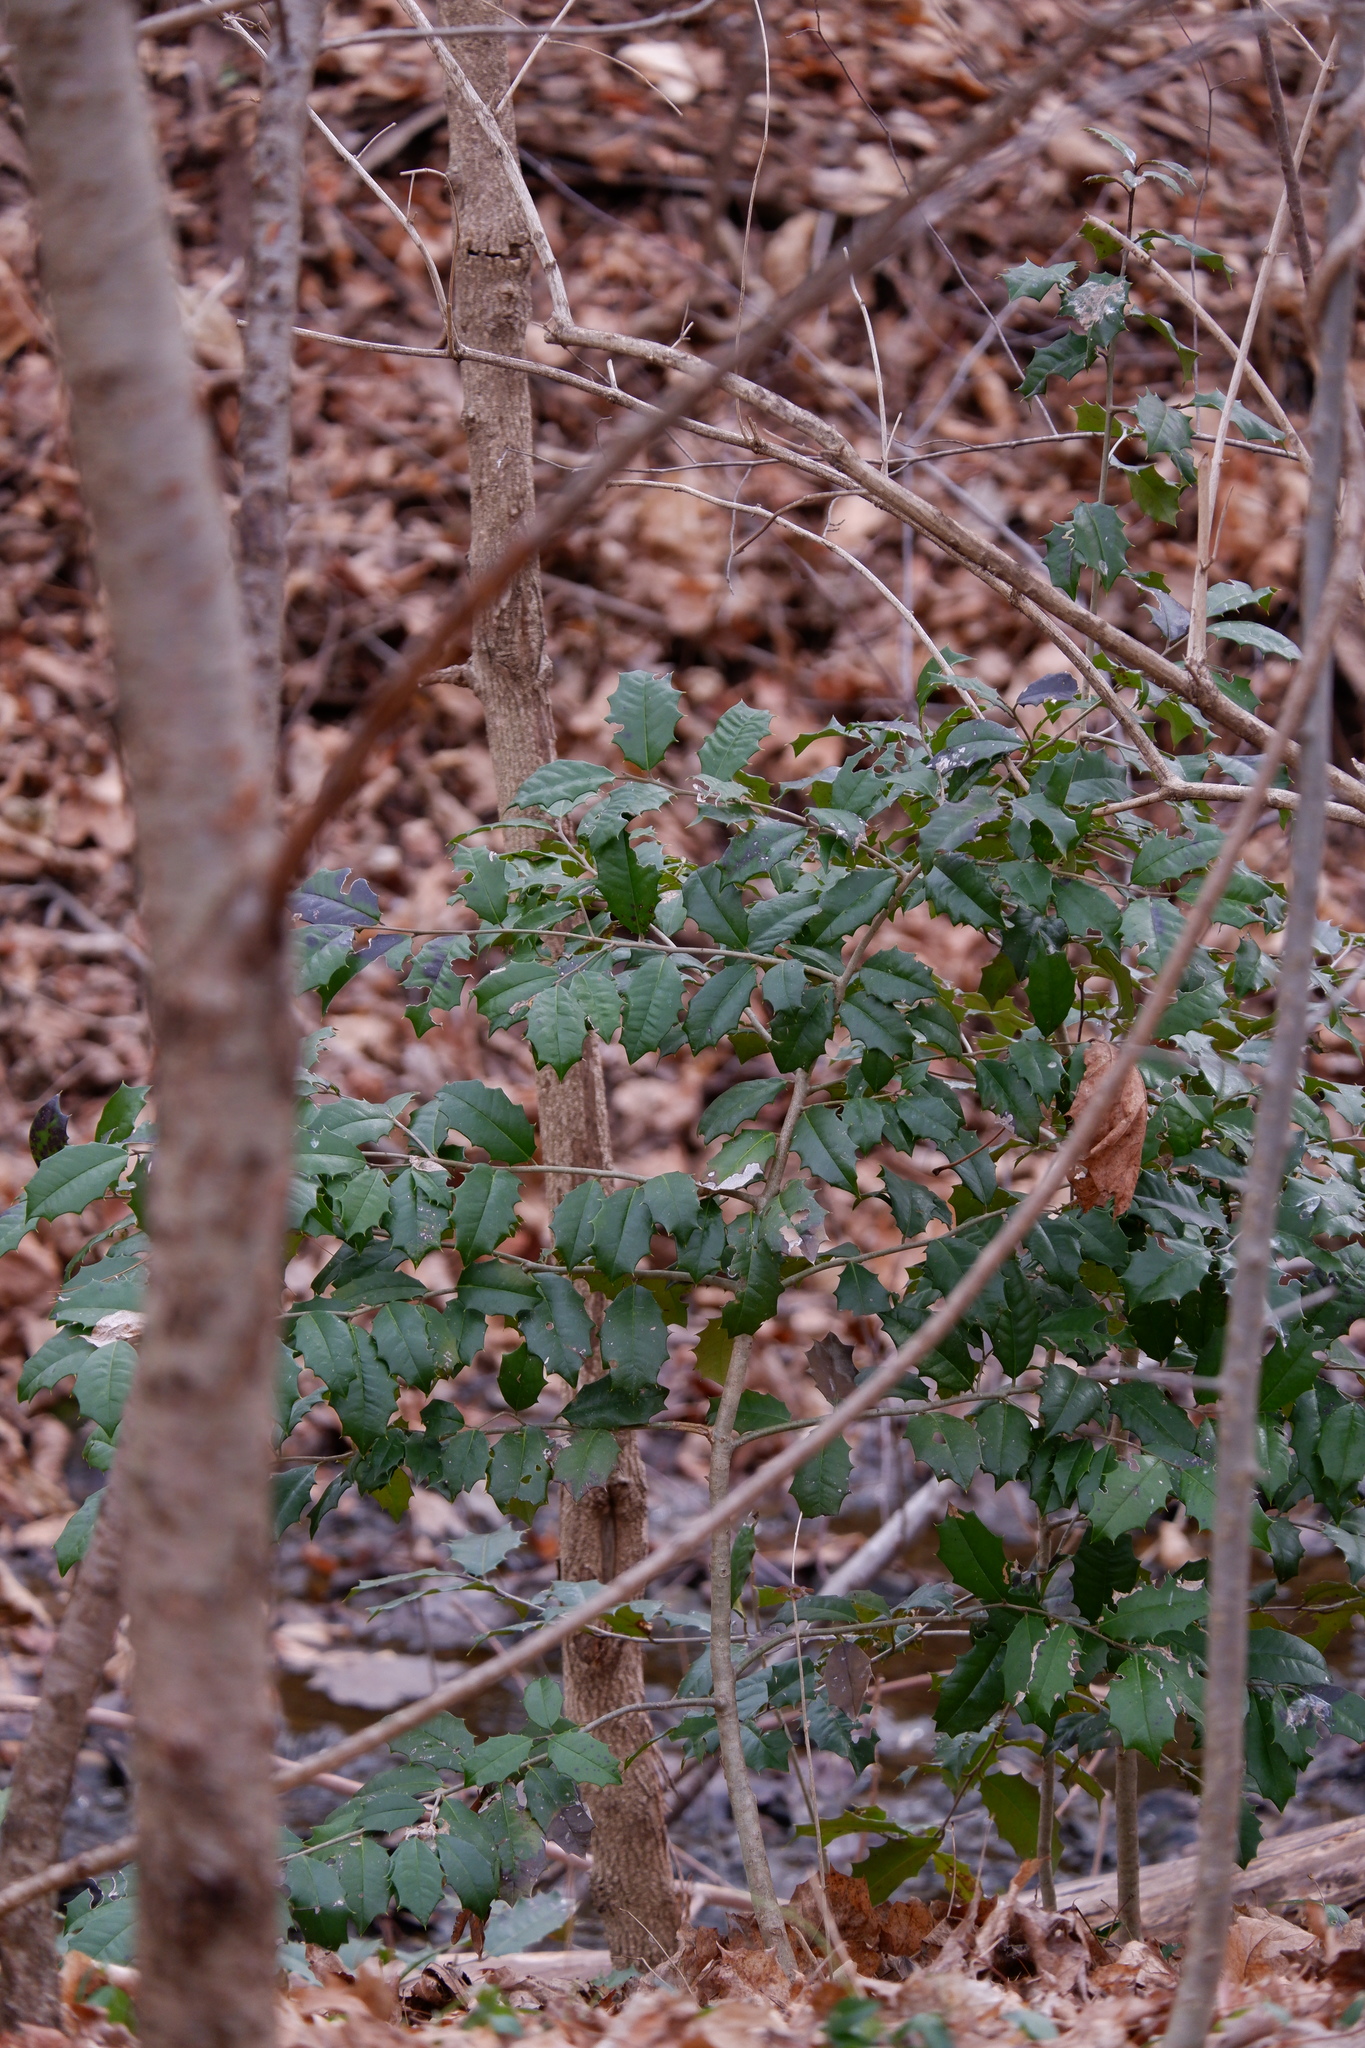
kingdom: Plantae
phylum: Tracheophyta
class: Magnoliopsida
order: Aquifoliales
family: Aquifoliaceae
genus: Ilex
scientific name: Ilex opaca
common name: American holly
